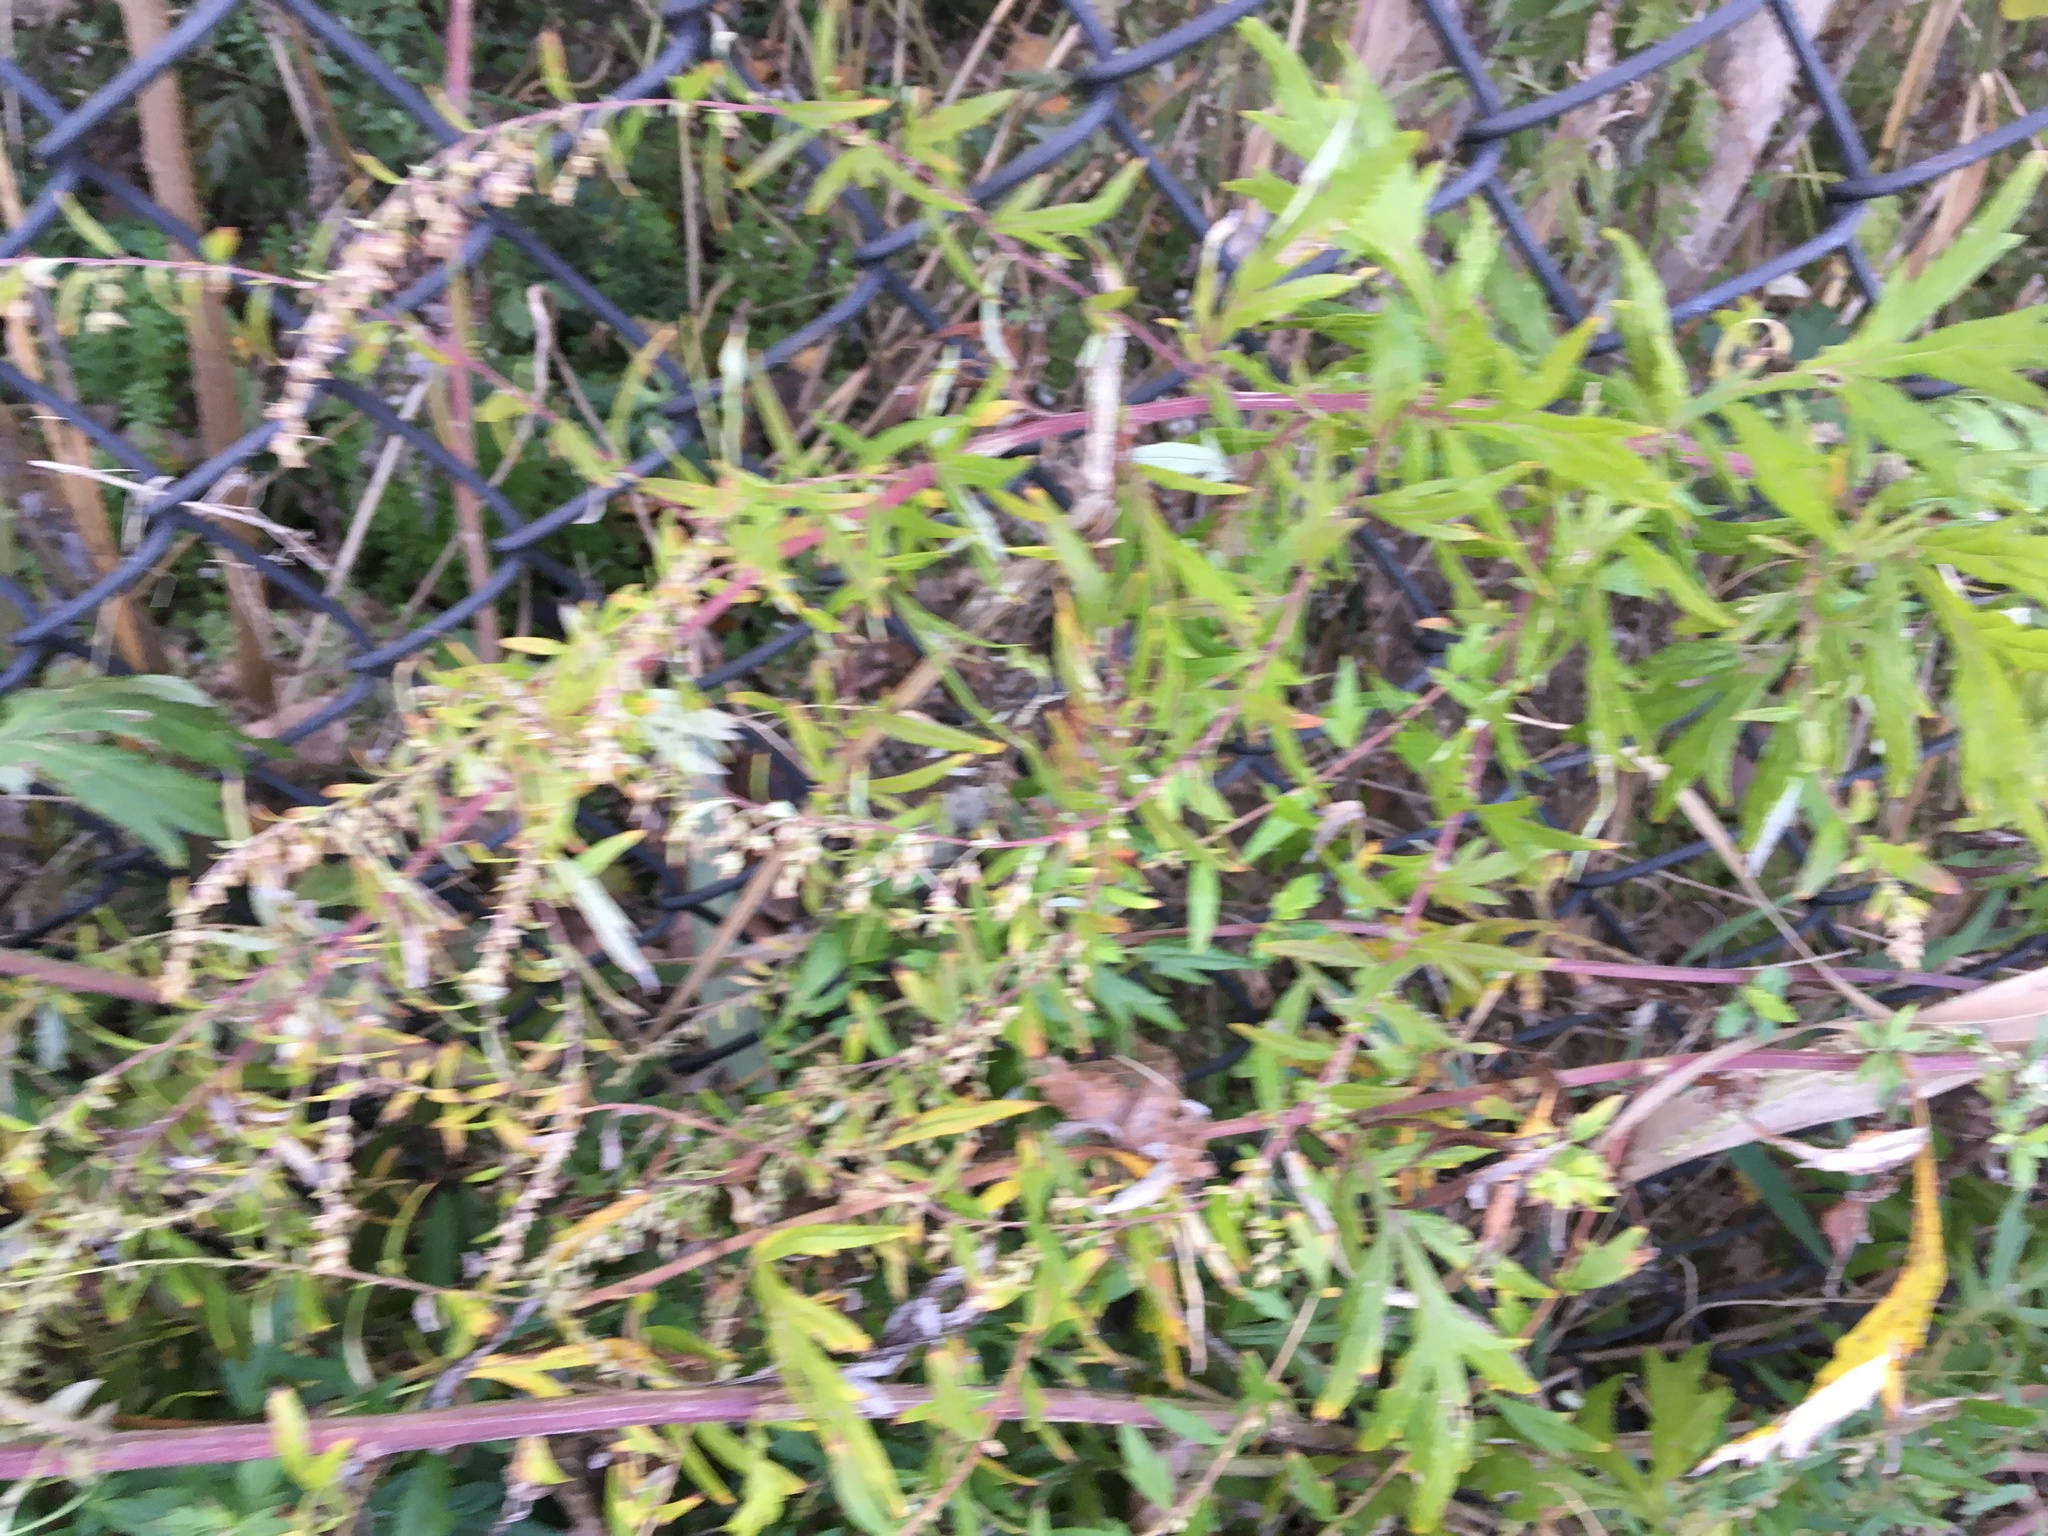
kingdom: Plantae
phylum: Tracheophyta
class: Magnoliopsida
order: Asterales
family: Asteraceae
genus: Artemisia
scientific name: Artemisia vulgaris
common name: Mugwort
